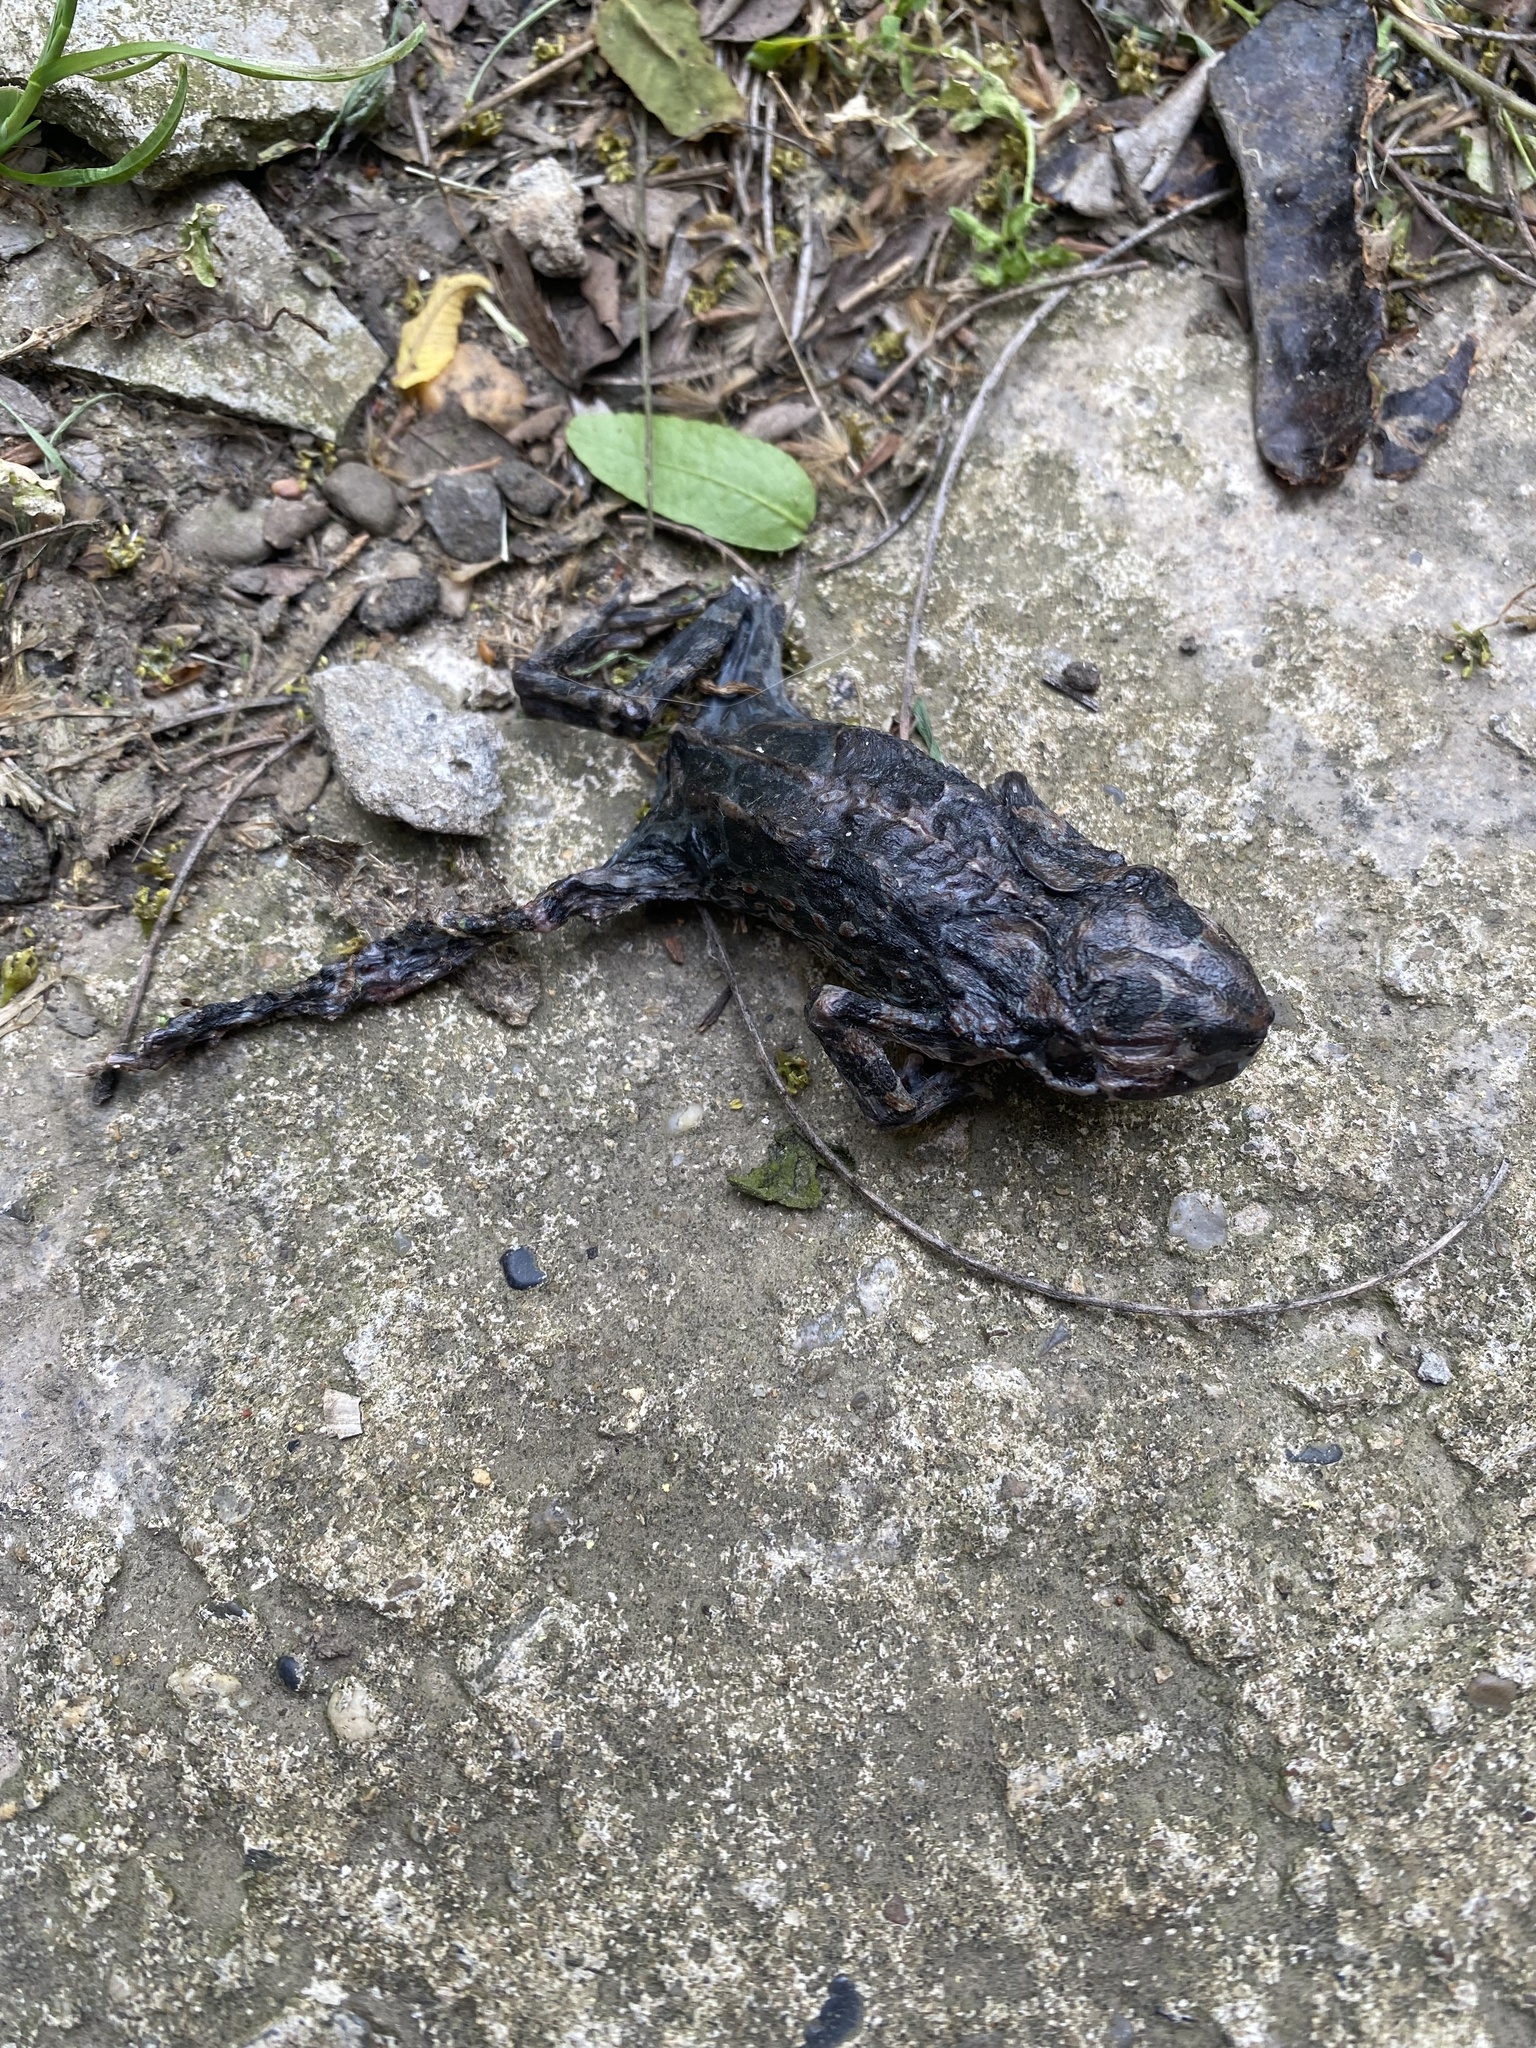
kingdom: Animalia
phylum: Chordata
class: Amphibia
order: Anura
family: Bufonidae
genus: Bufotes
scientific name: Bufotes viridis
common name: European green toad
